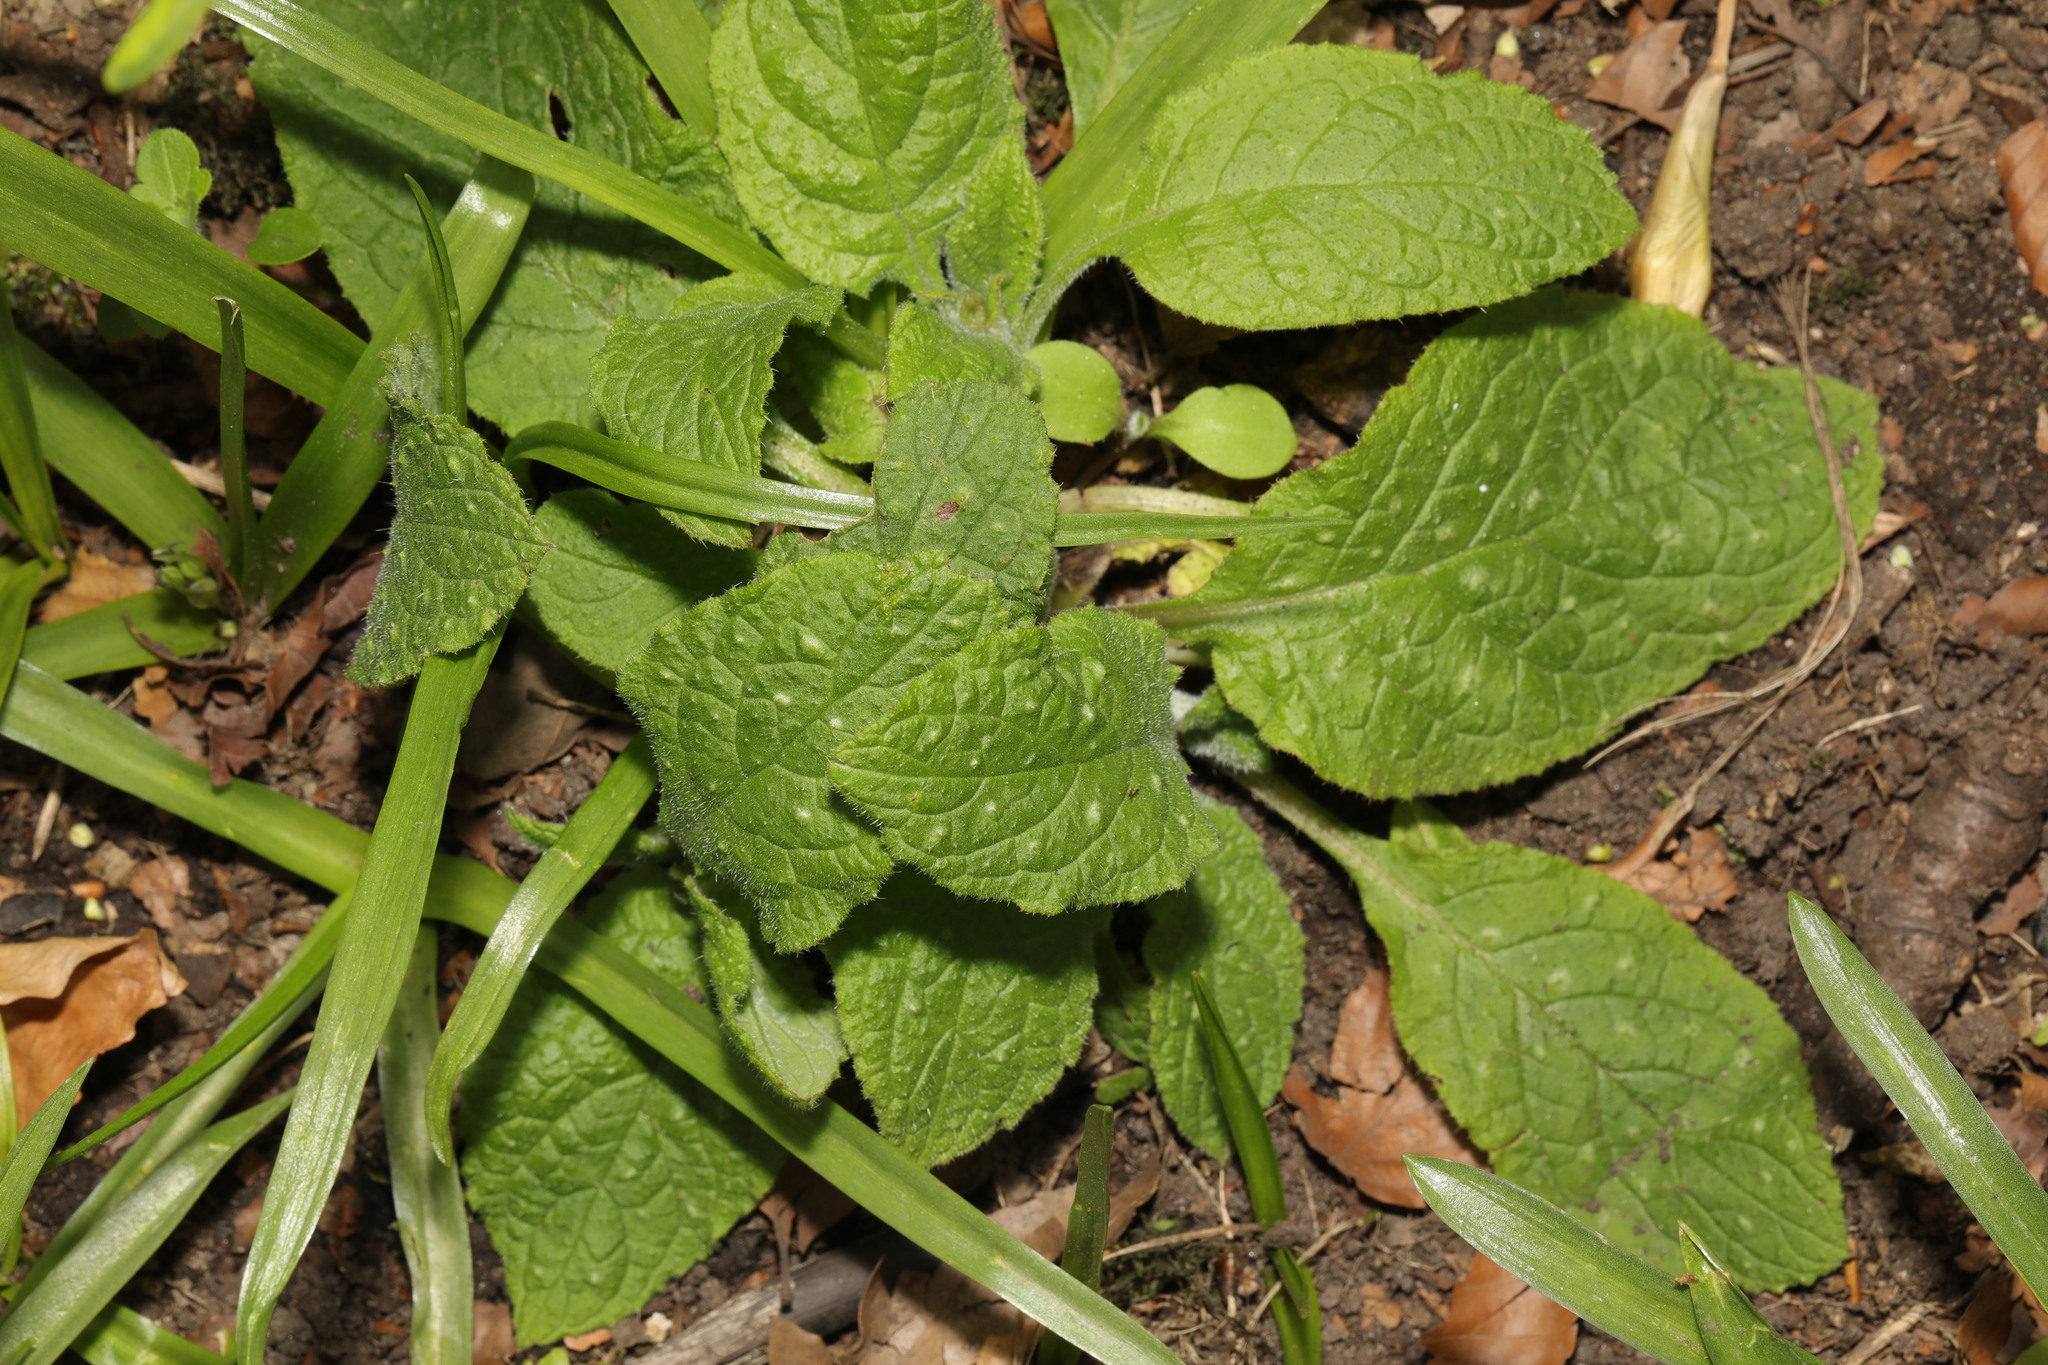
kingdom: Plantae
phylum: Tracheophyta
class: Magnoliopsida
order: Boraginales
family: Boraginaceae
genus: Pentaglottis
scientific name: Pentaglottis sempervirens
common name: Green alkanet
